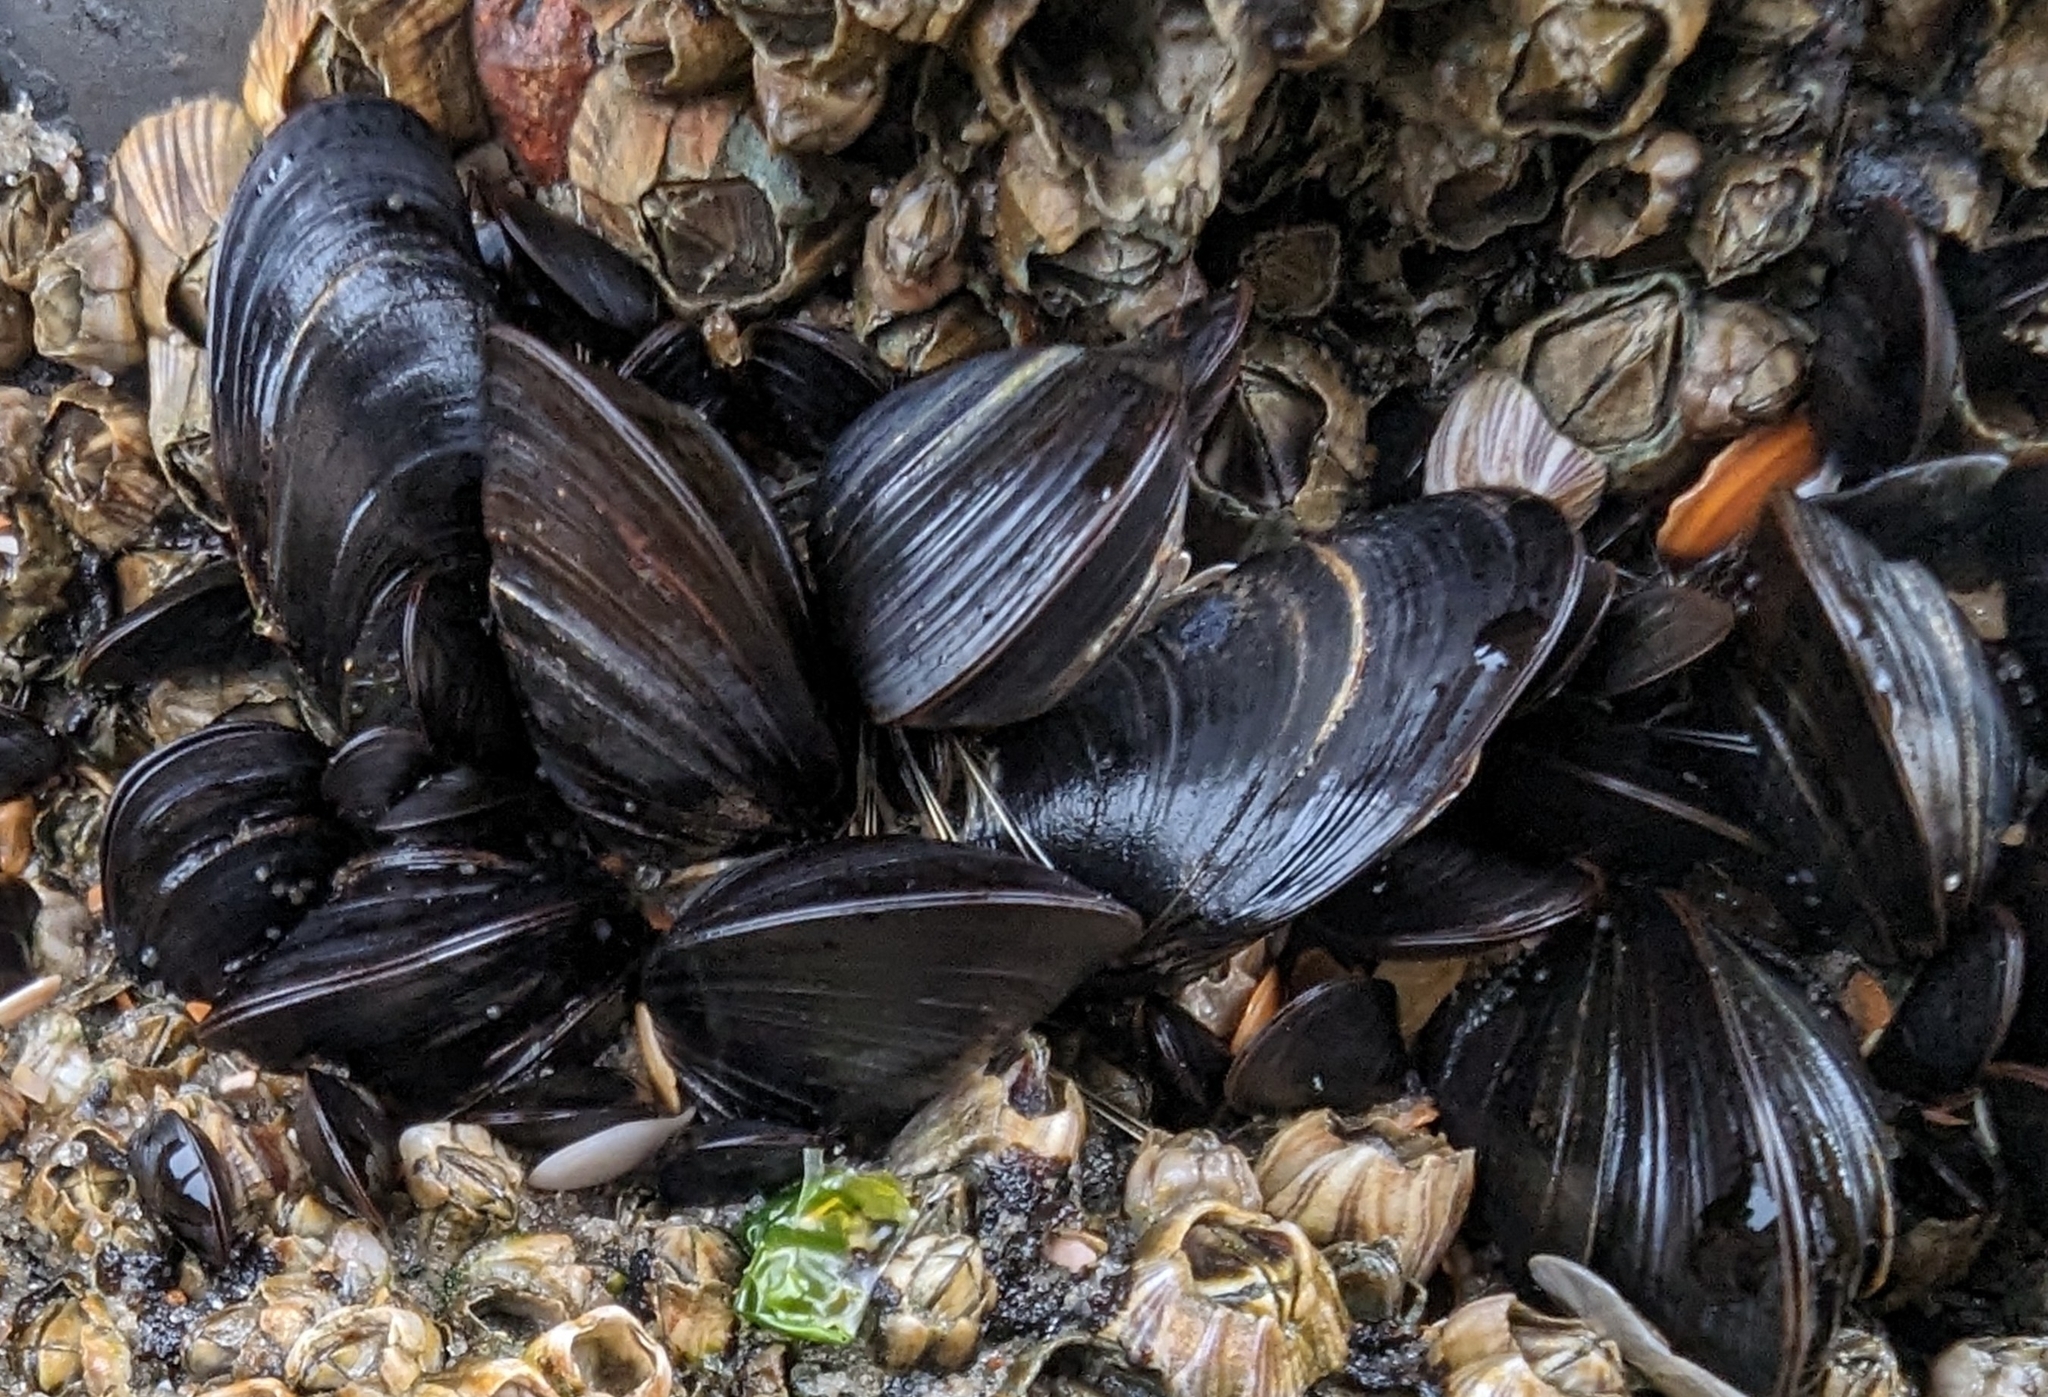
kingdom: Animalia
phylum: Mollusca
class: Bivalvia
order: Mytilida
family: Mytilidae
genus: Mytilus
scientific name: Mytilus edulis
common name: Blue mussel
